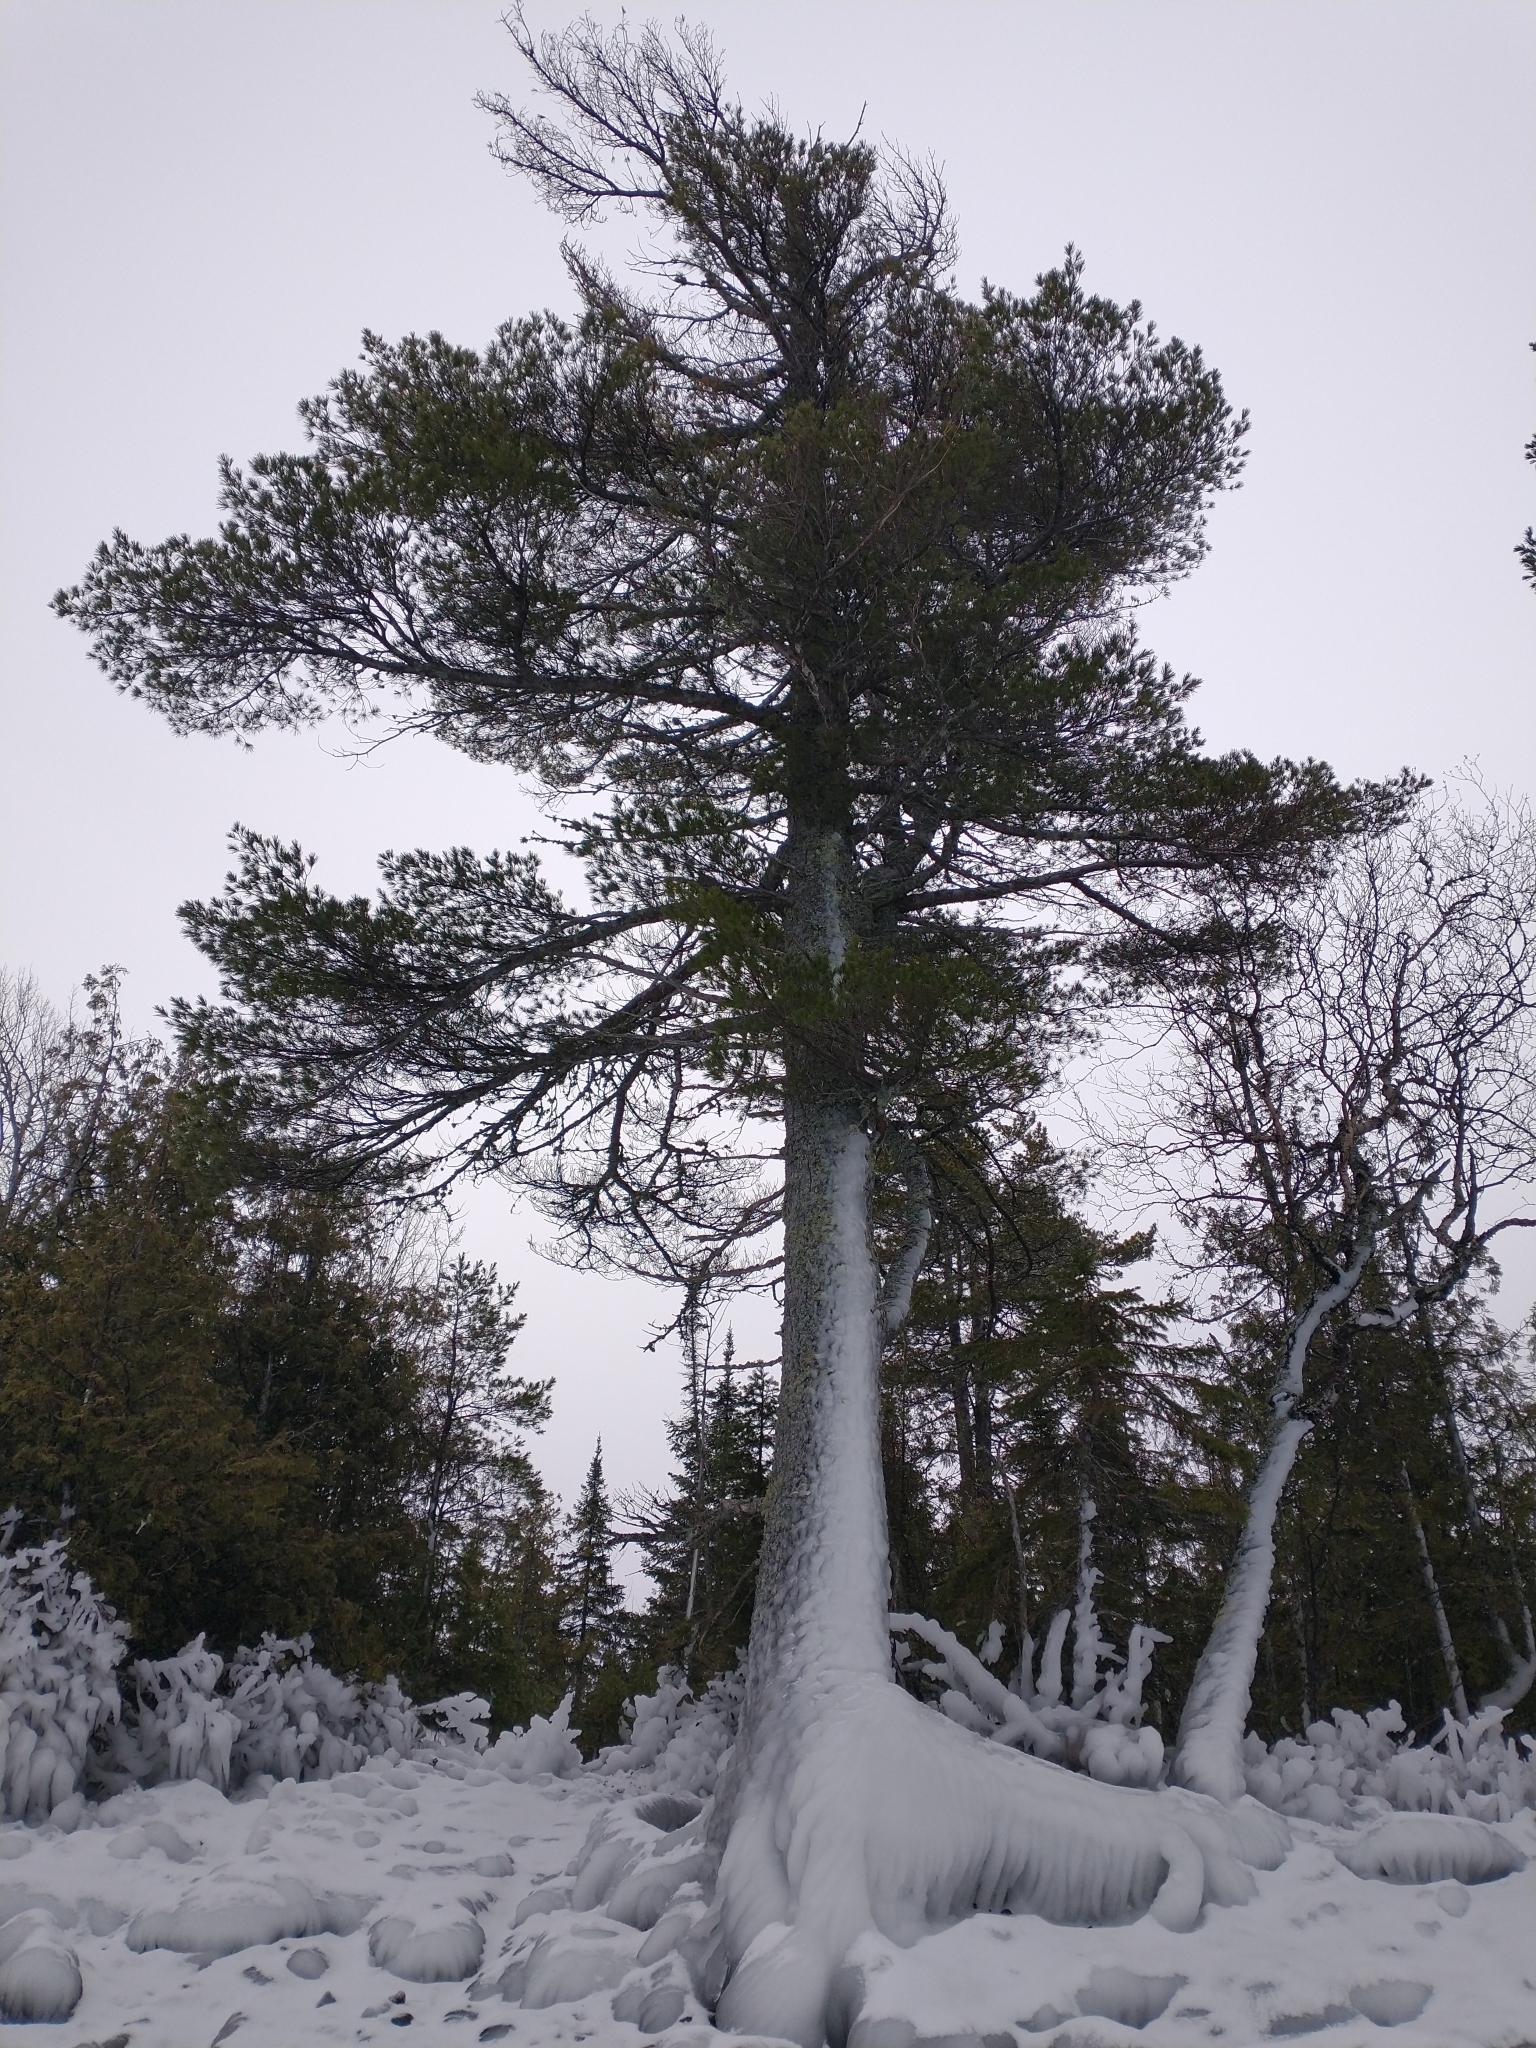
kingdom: Plantae
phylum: Tracheophyta
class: Pinopsida
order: Pinales
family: Pinaceae
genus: Pinus
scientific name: Pinus strobus
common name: Weymouth pine
